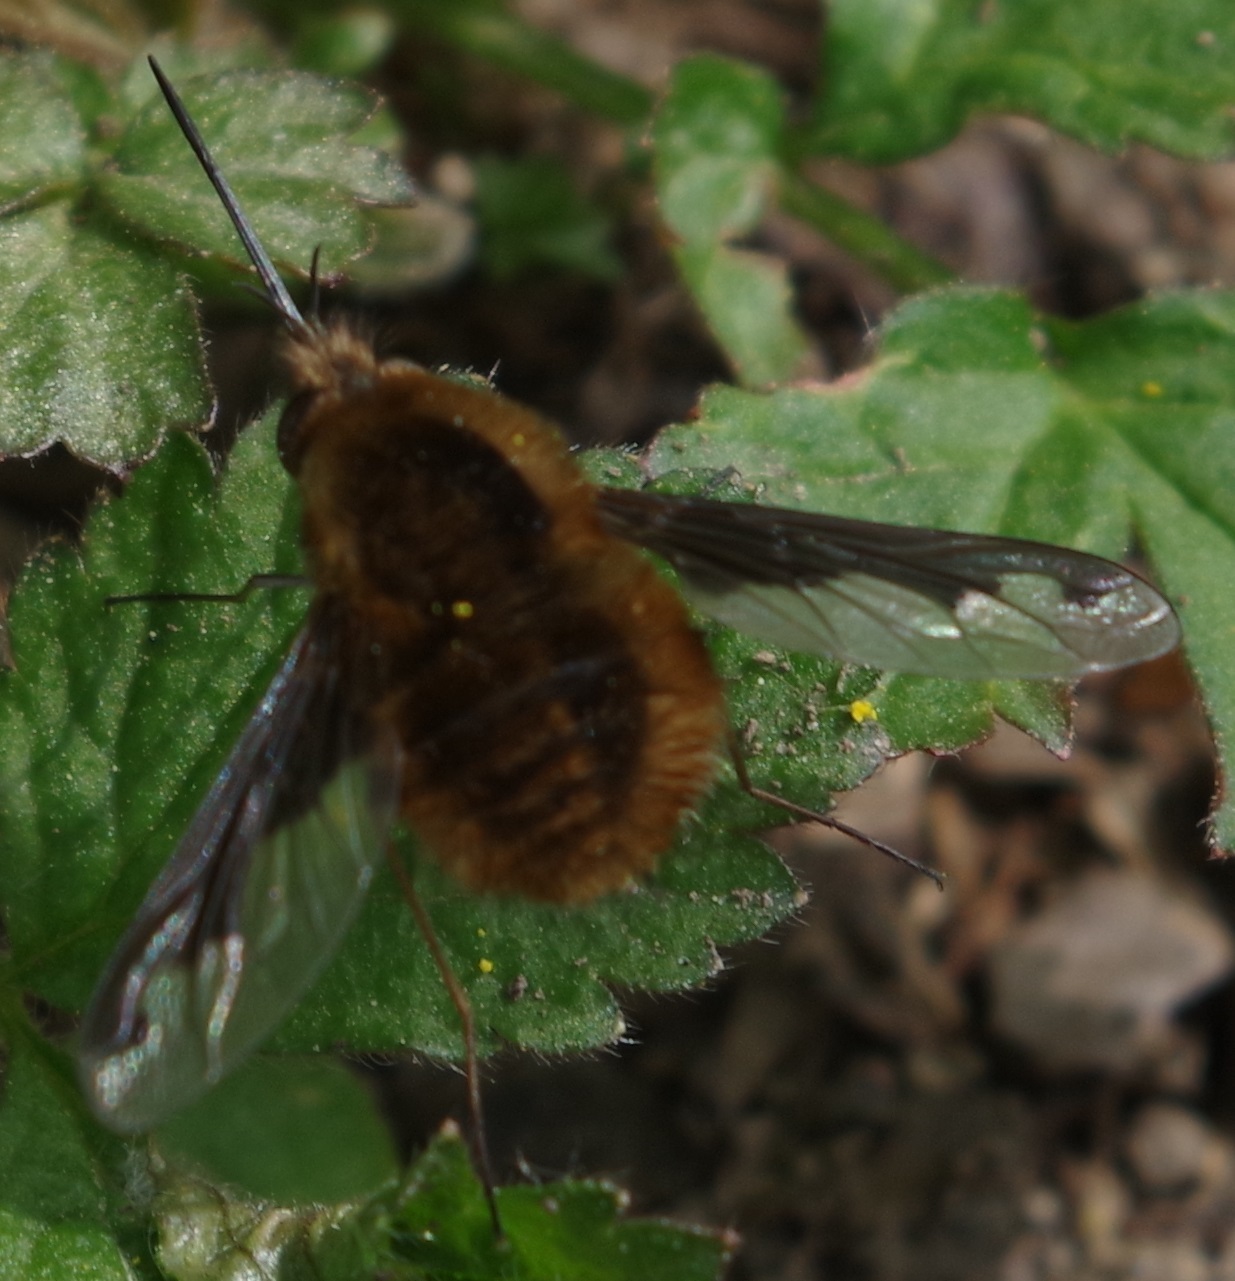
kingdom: Animalia
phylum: Arthropoda
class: Insecta
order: Diptera
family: Bombyliidae
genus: Bombylius
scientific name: Bombylius major
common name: Bee fly
